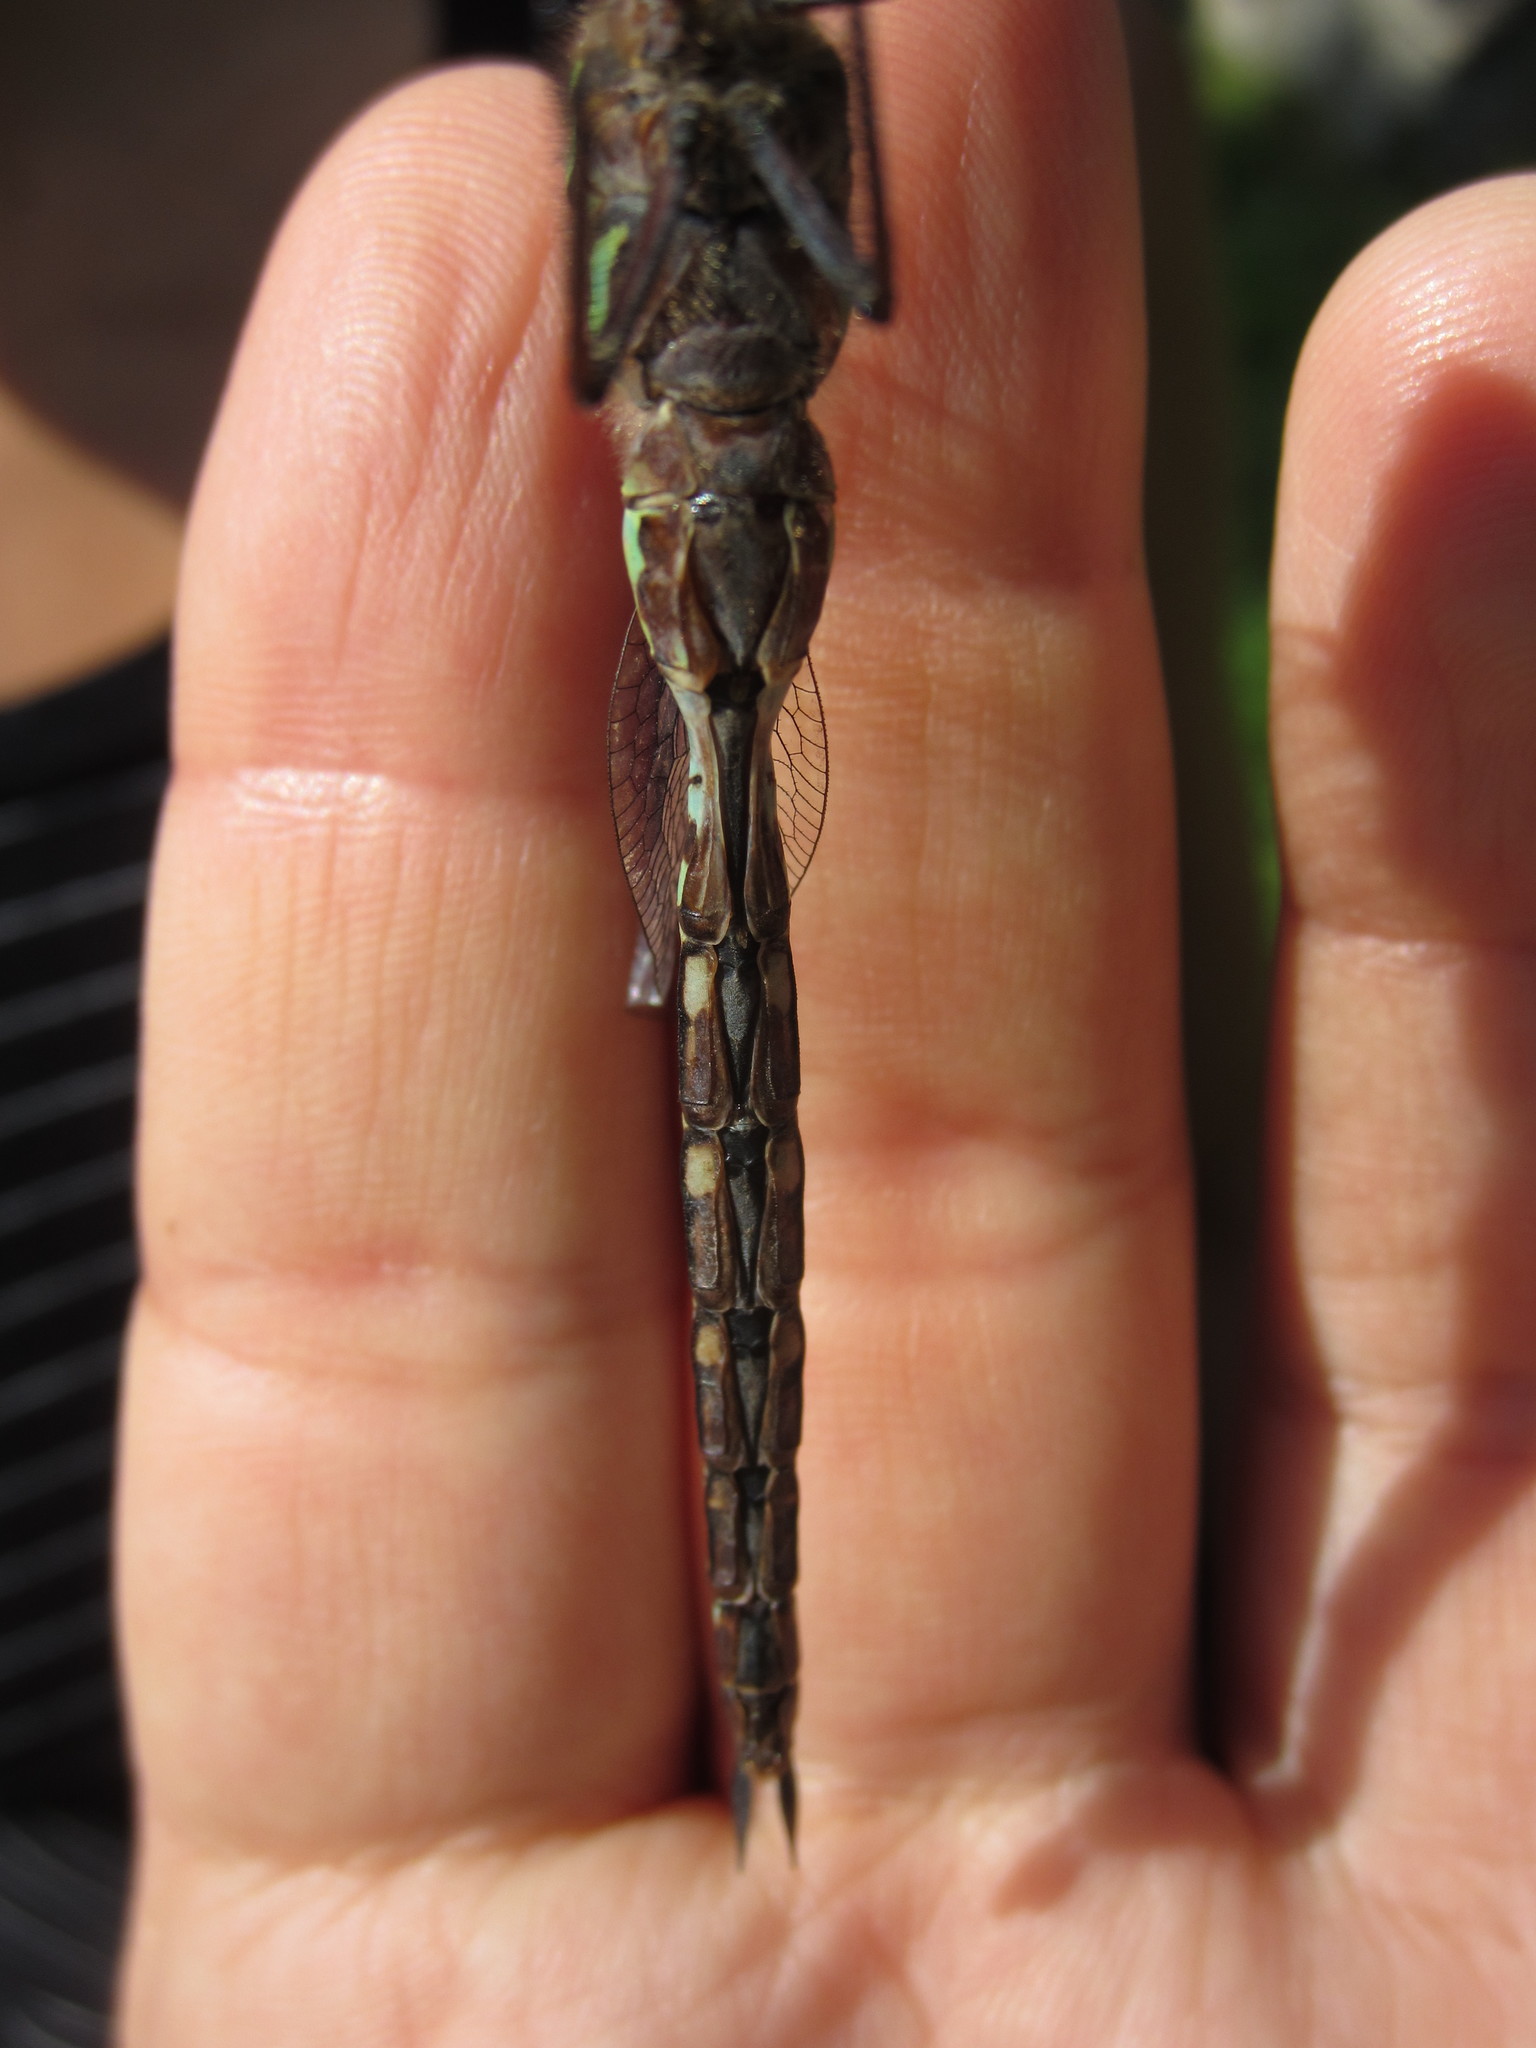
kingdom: Animalia
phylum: Arthropoda
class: Insecta
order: Odonata
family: Aeshnidae
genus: Aeshna
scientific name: Aeshna canadensis
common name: Canada darner
